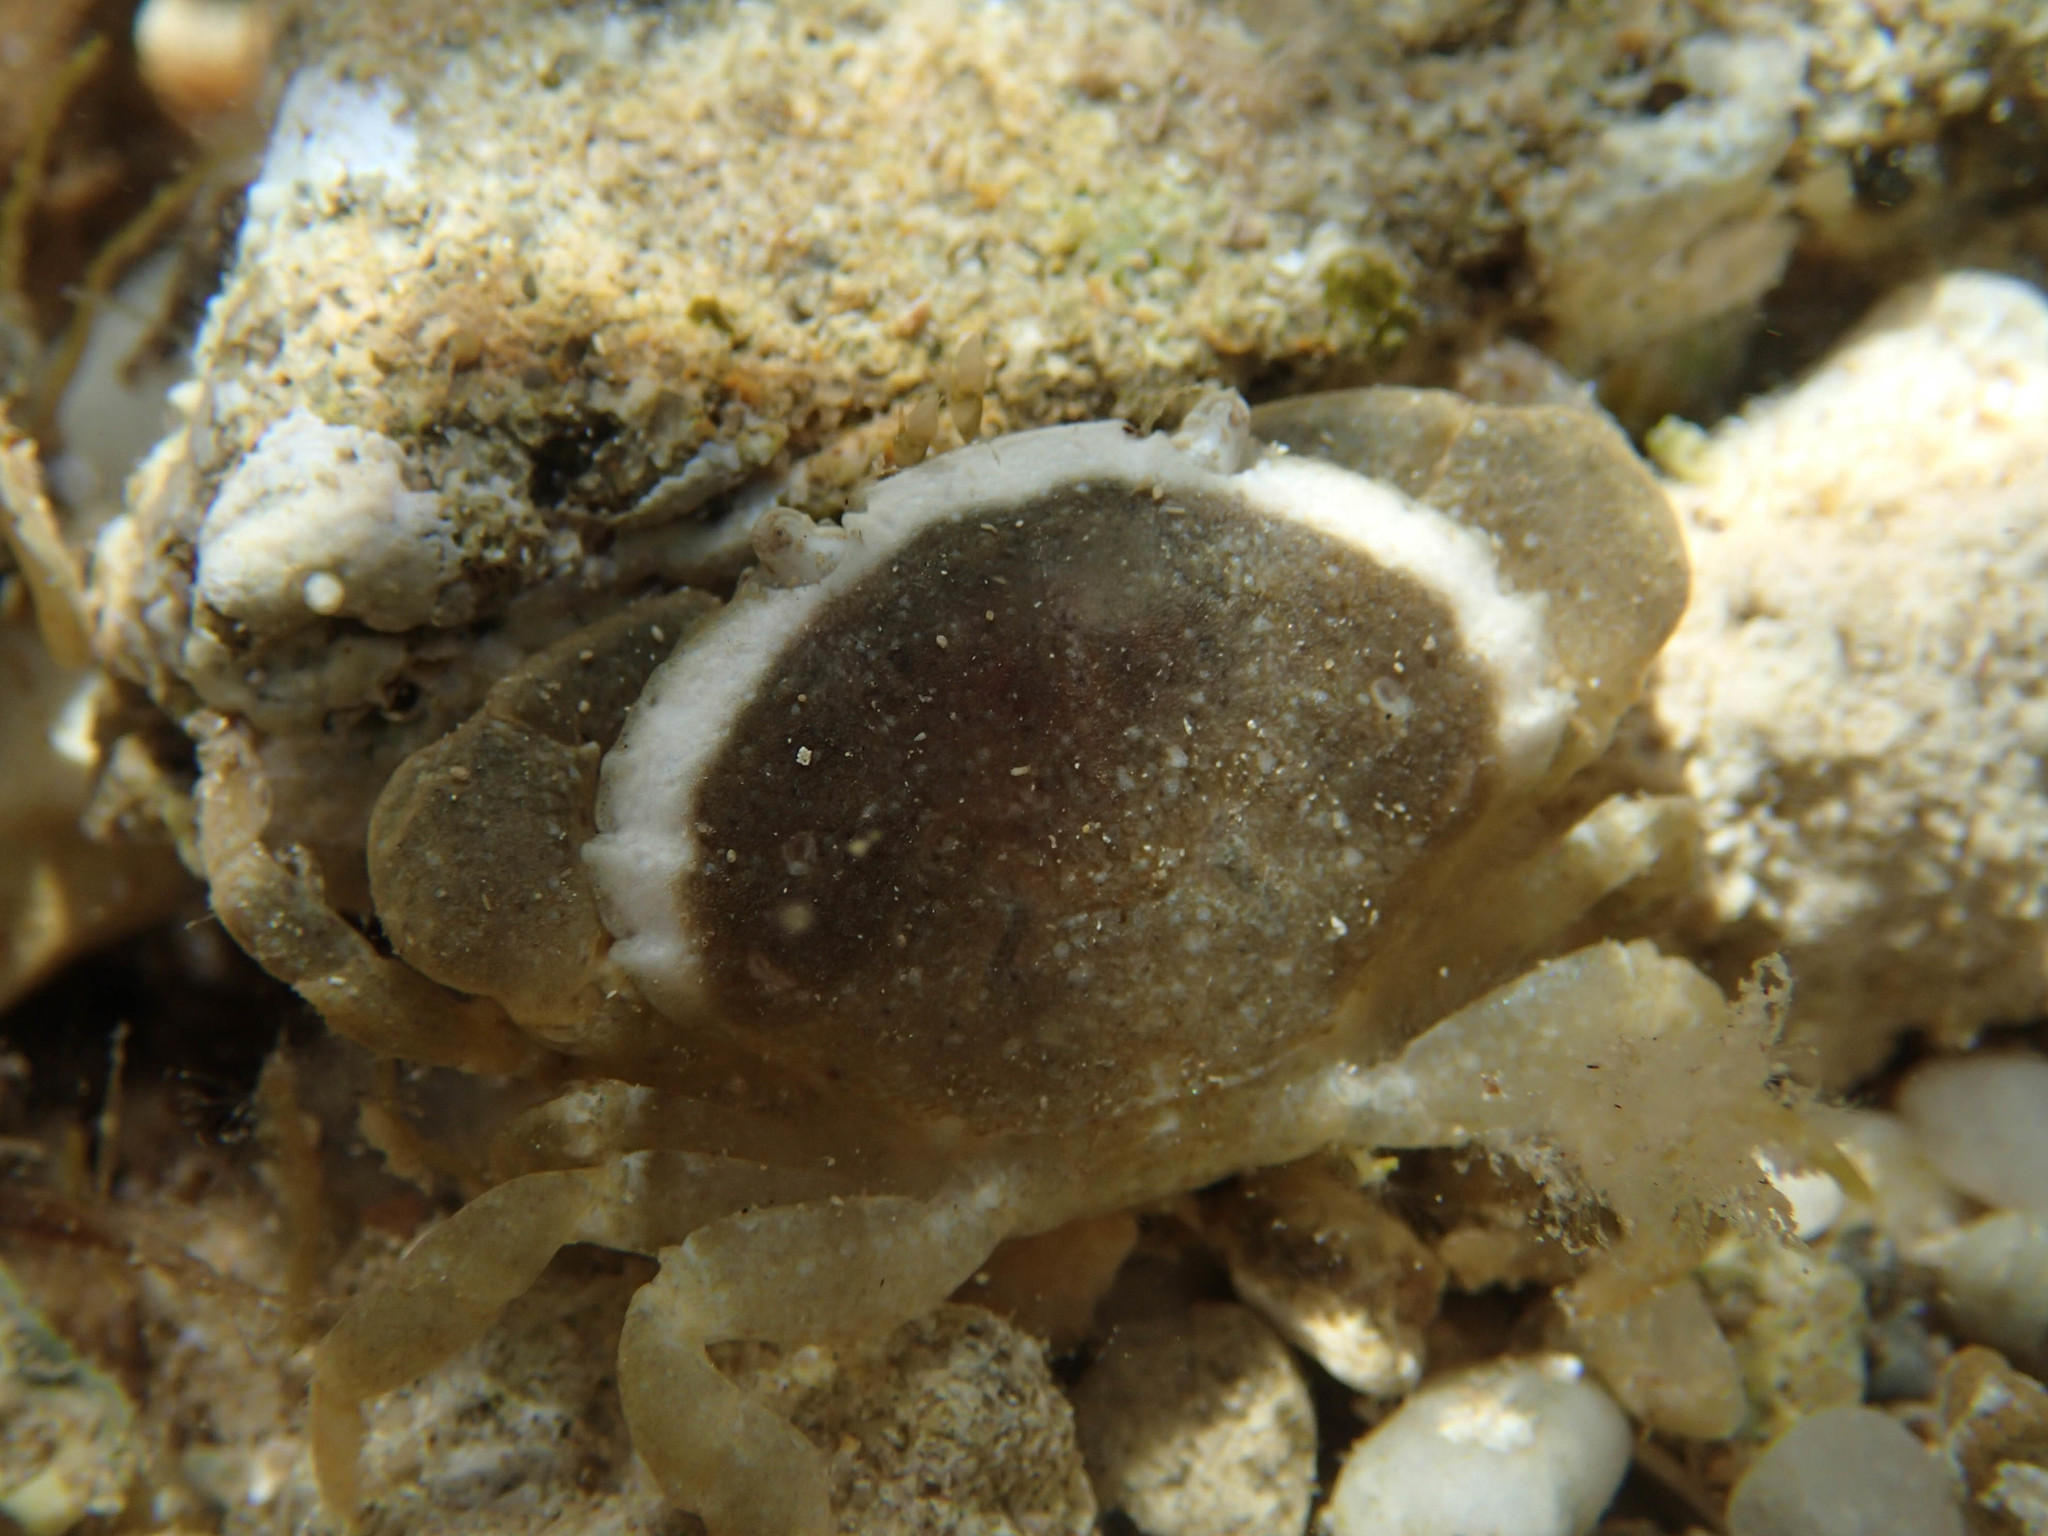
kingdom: Animalia
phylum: Arthropoda
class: Malacostraca
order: Decapoda
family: Xanthidae
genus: Xantho
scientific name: Xantho poressa
